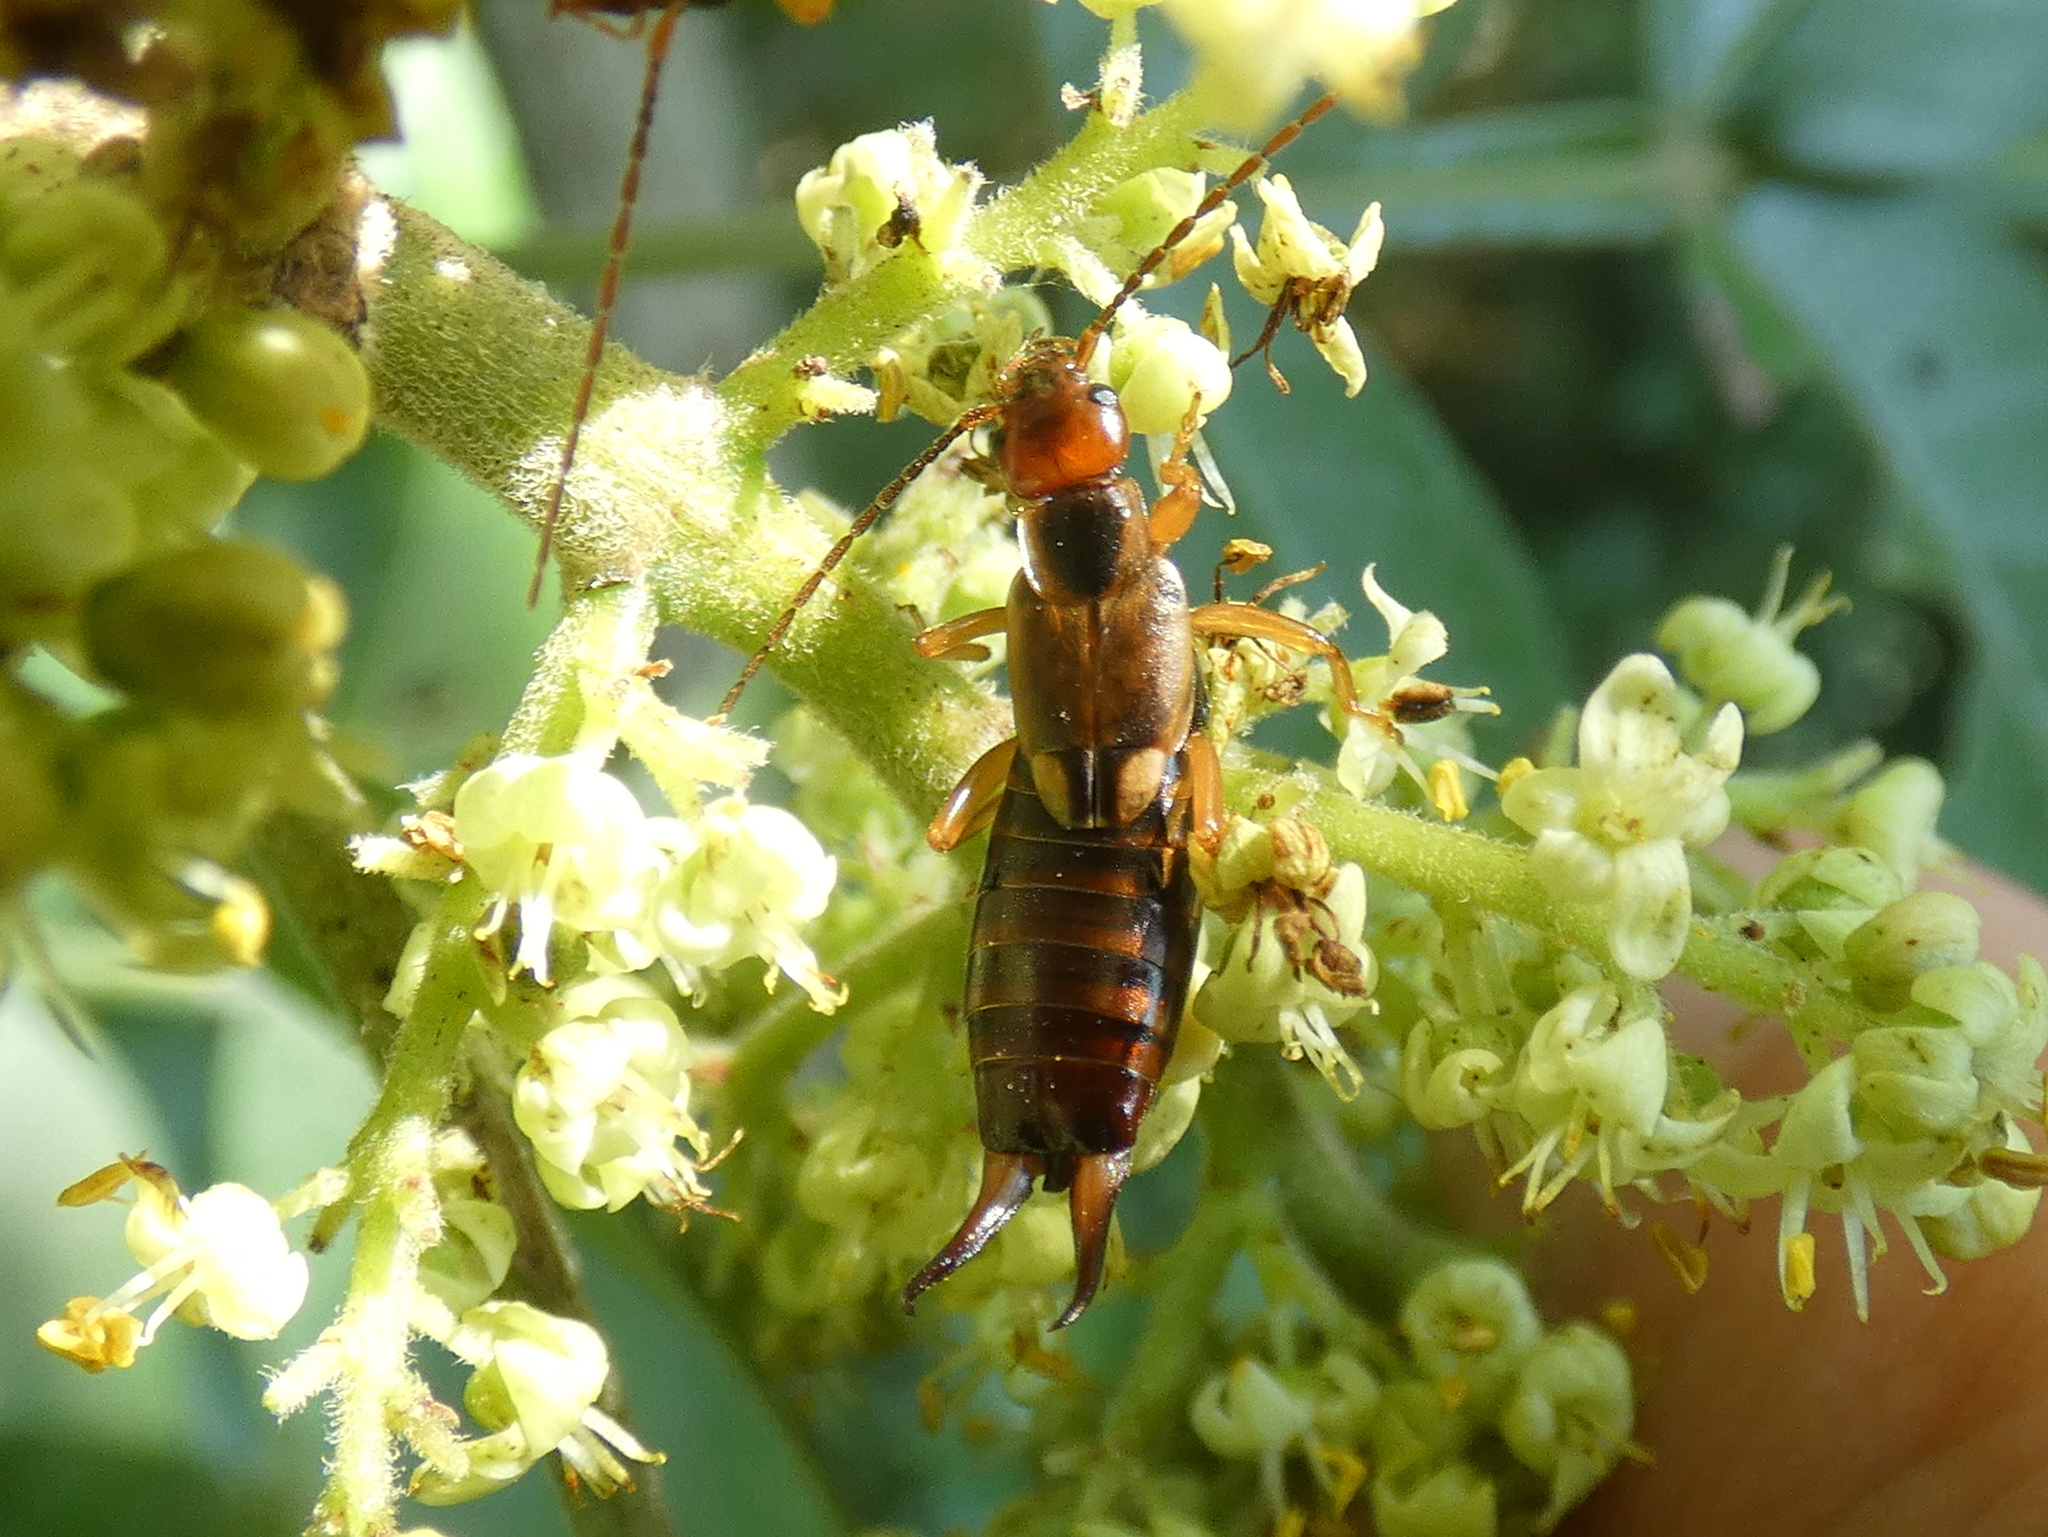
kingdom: Animalia
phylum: Arthropoda
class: Insecta
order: Dermaptera
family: Forficulidae
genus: Forficula
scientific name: Forficula
